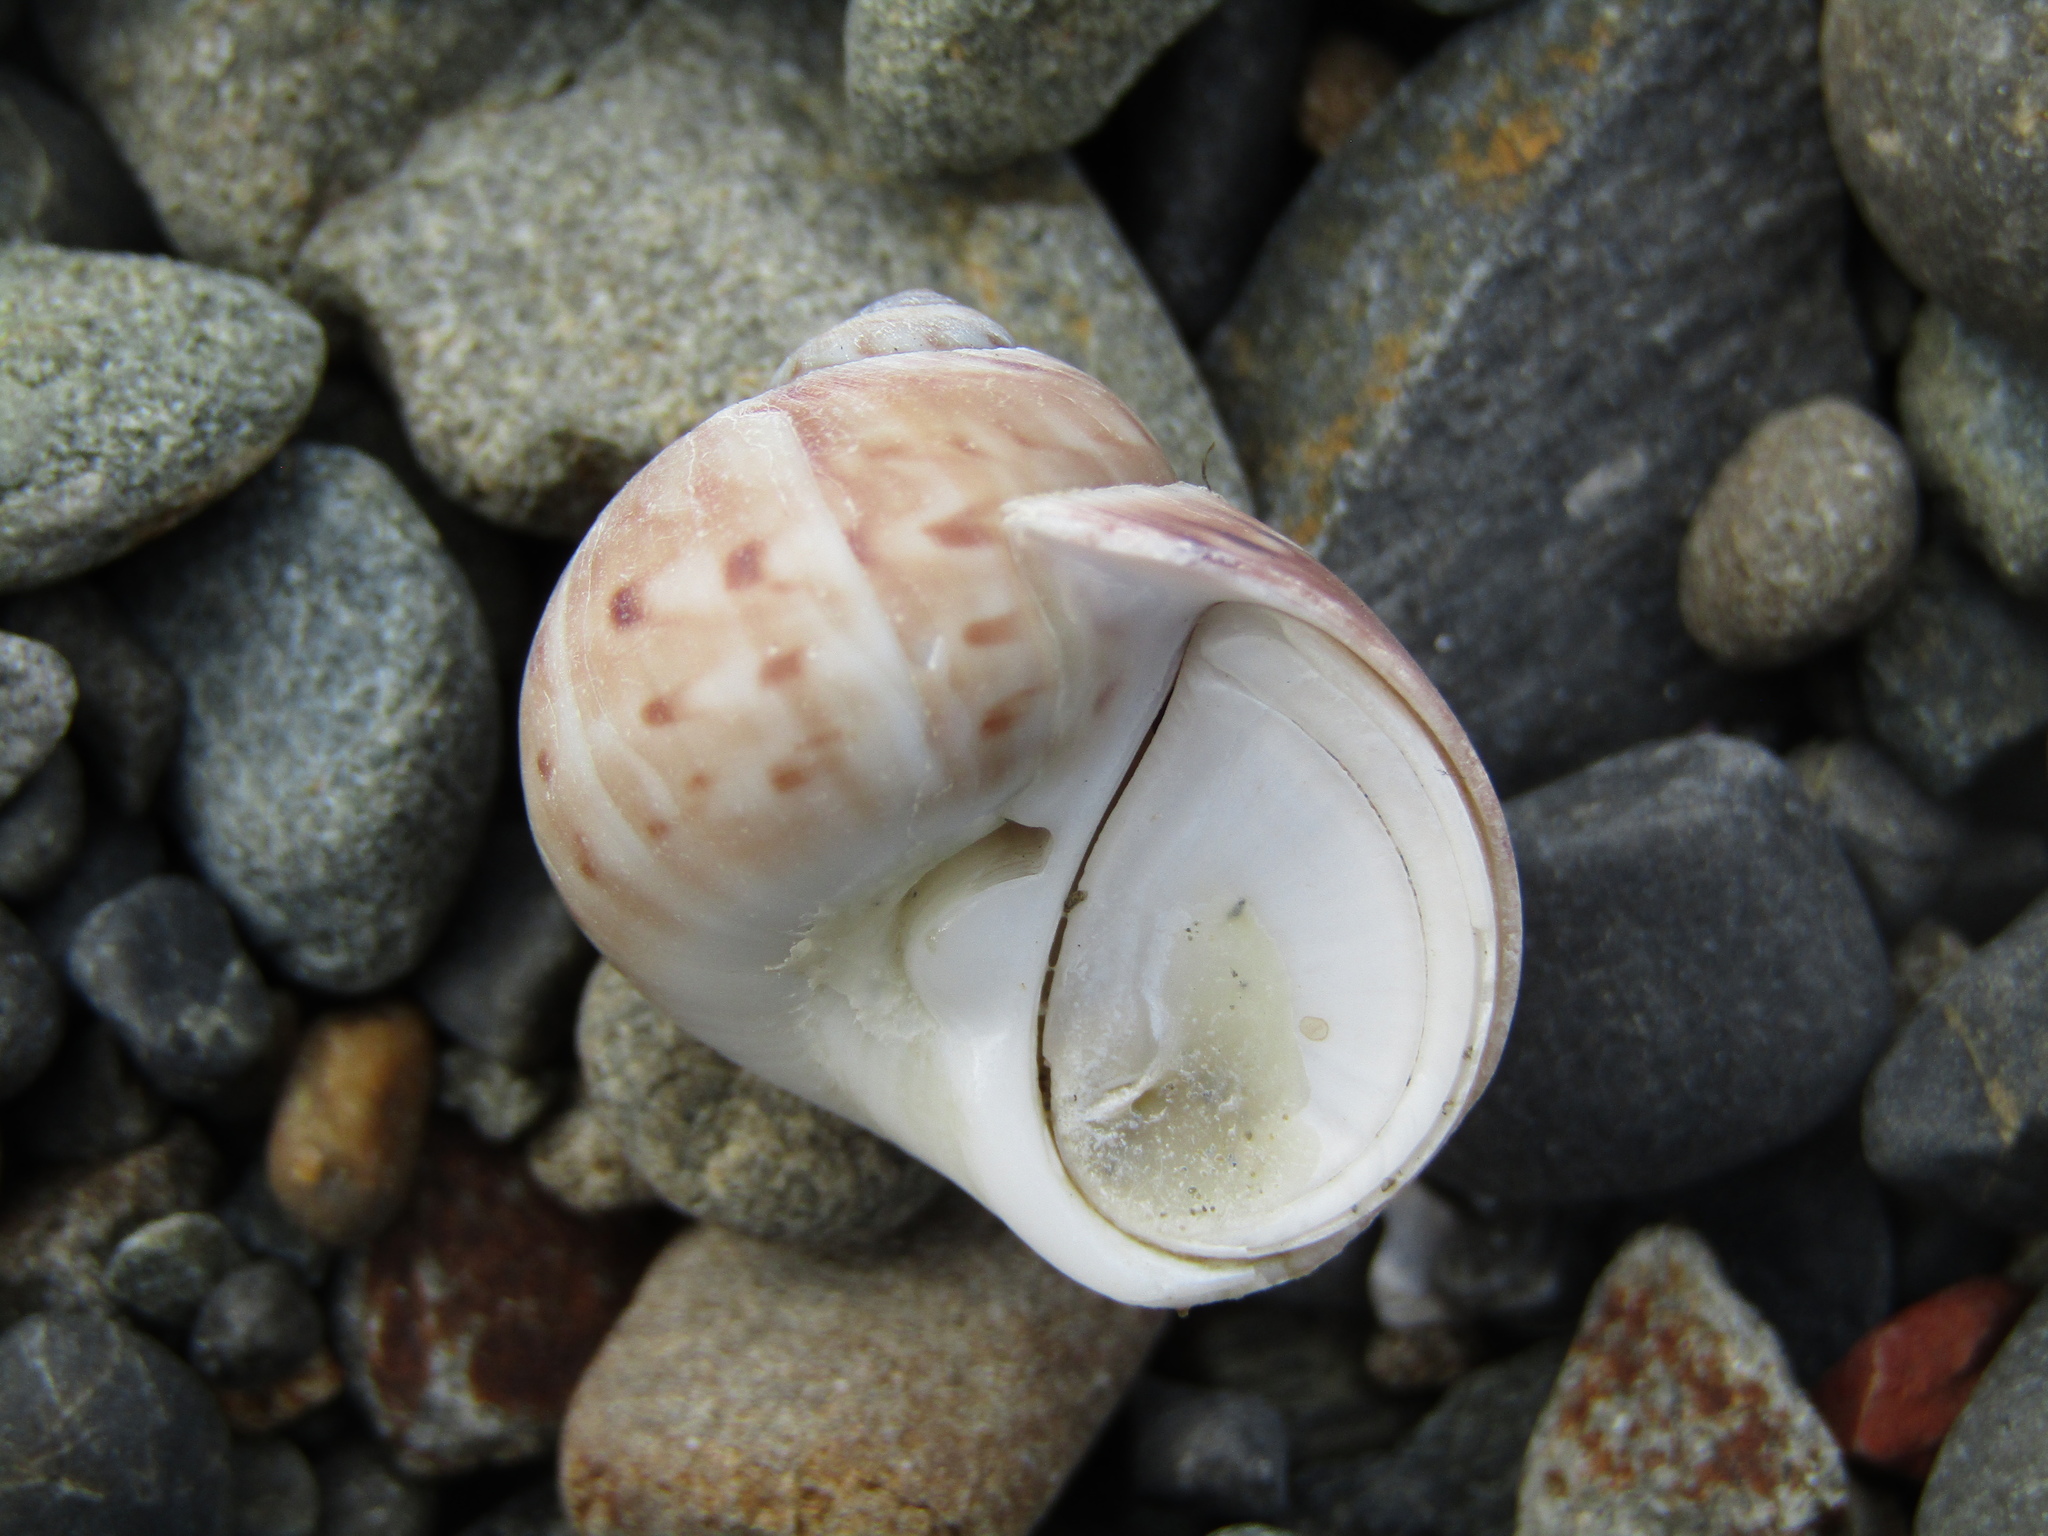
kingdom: Animalia
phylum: Mollusca
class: Gastropoda
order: Littorinimorpha
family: Naticidae
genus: Tanea
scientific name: Tanea zelandica
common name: New zealand moonsnail
